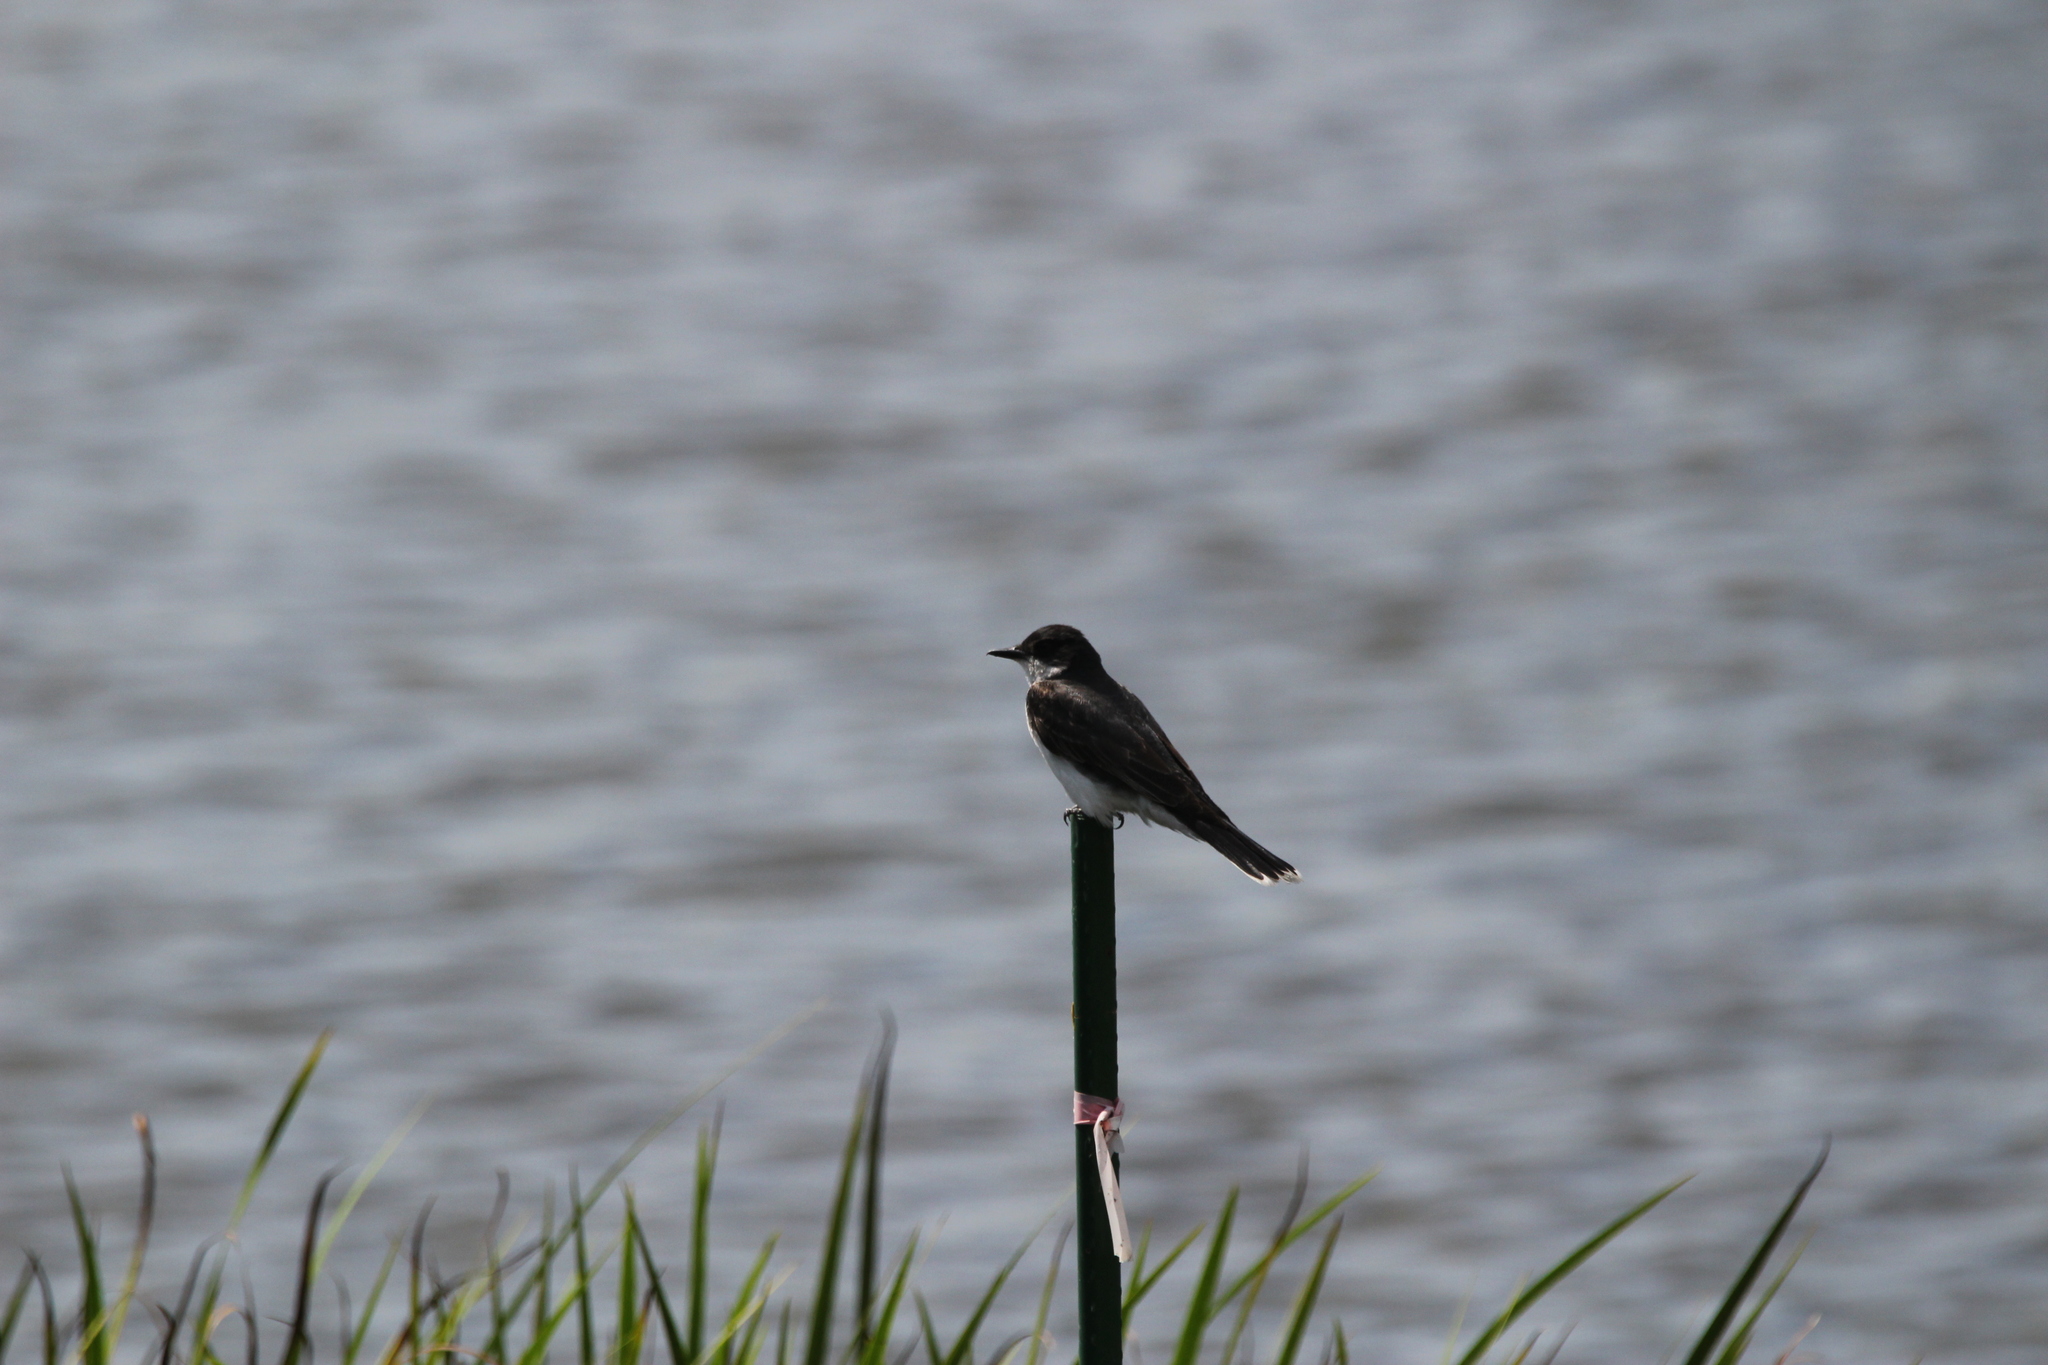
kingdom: Animalia
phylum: Chordata
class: Aves
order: Passeriformes
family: Tyrannidae
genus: Tyrannus
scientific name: Tyrannus tyrannus
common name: Eastern kingbird
